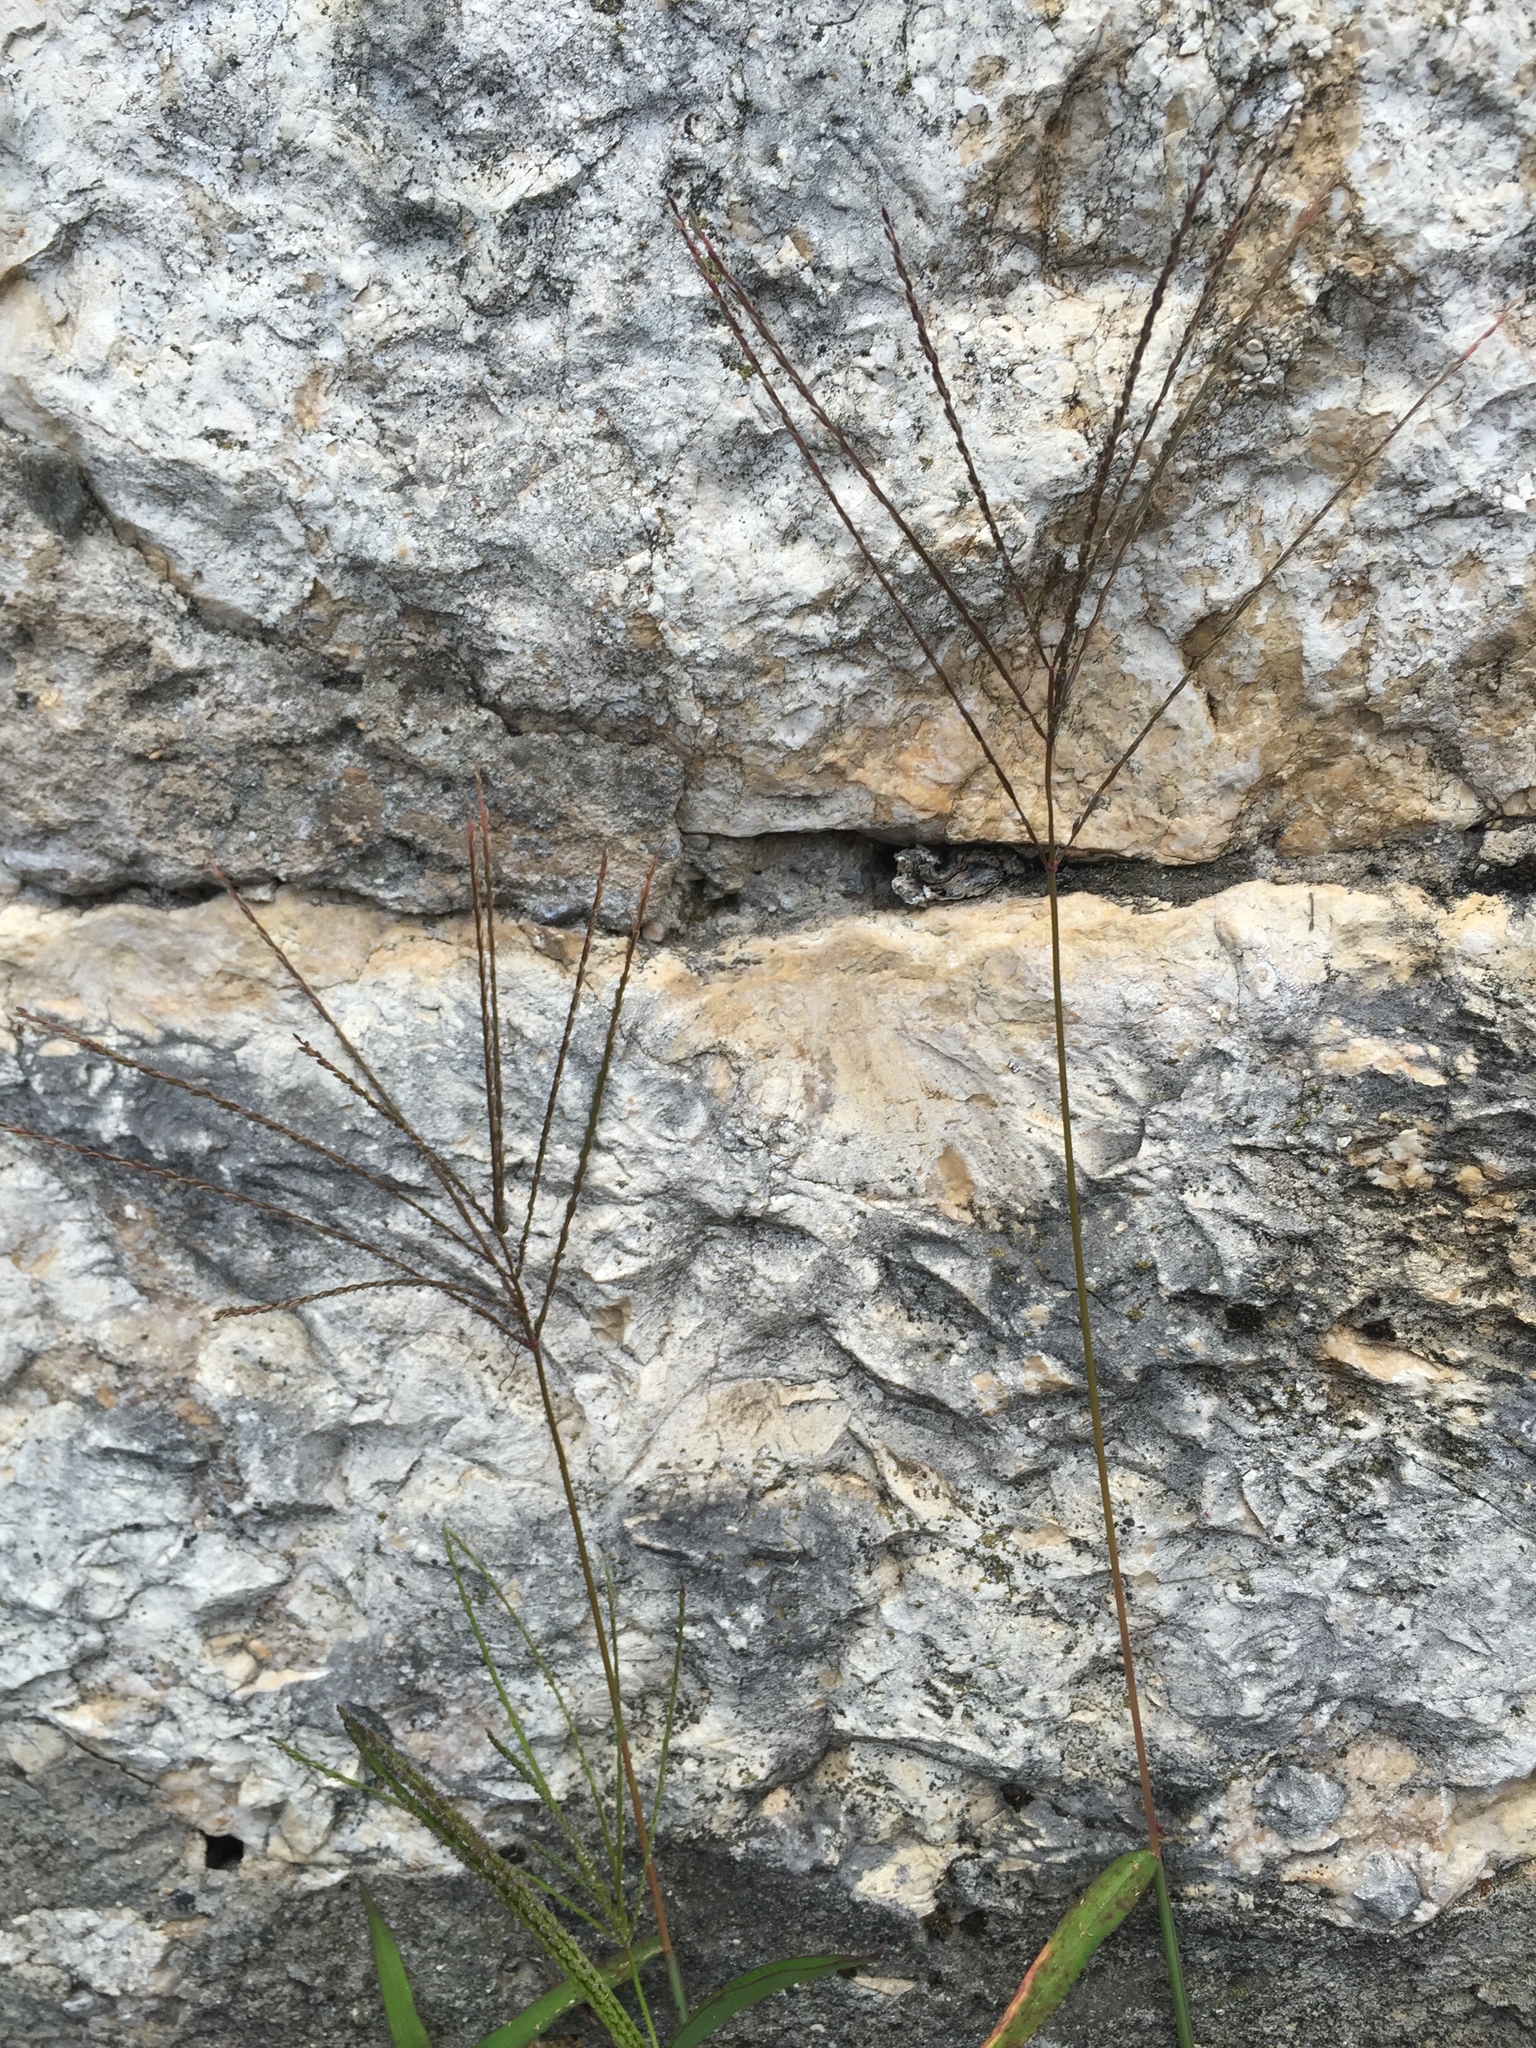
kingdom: Plantae
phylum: Tracheophyta
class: Liliopsida
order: Poales
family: Poaceae
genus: Digitaria
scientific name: Digitaria sanguinalis
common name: Hairy crabgrass
